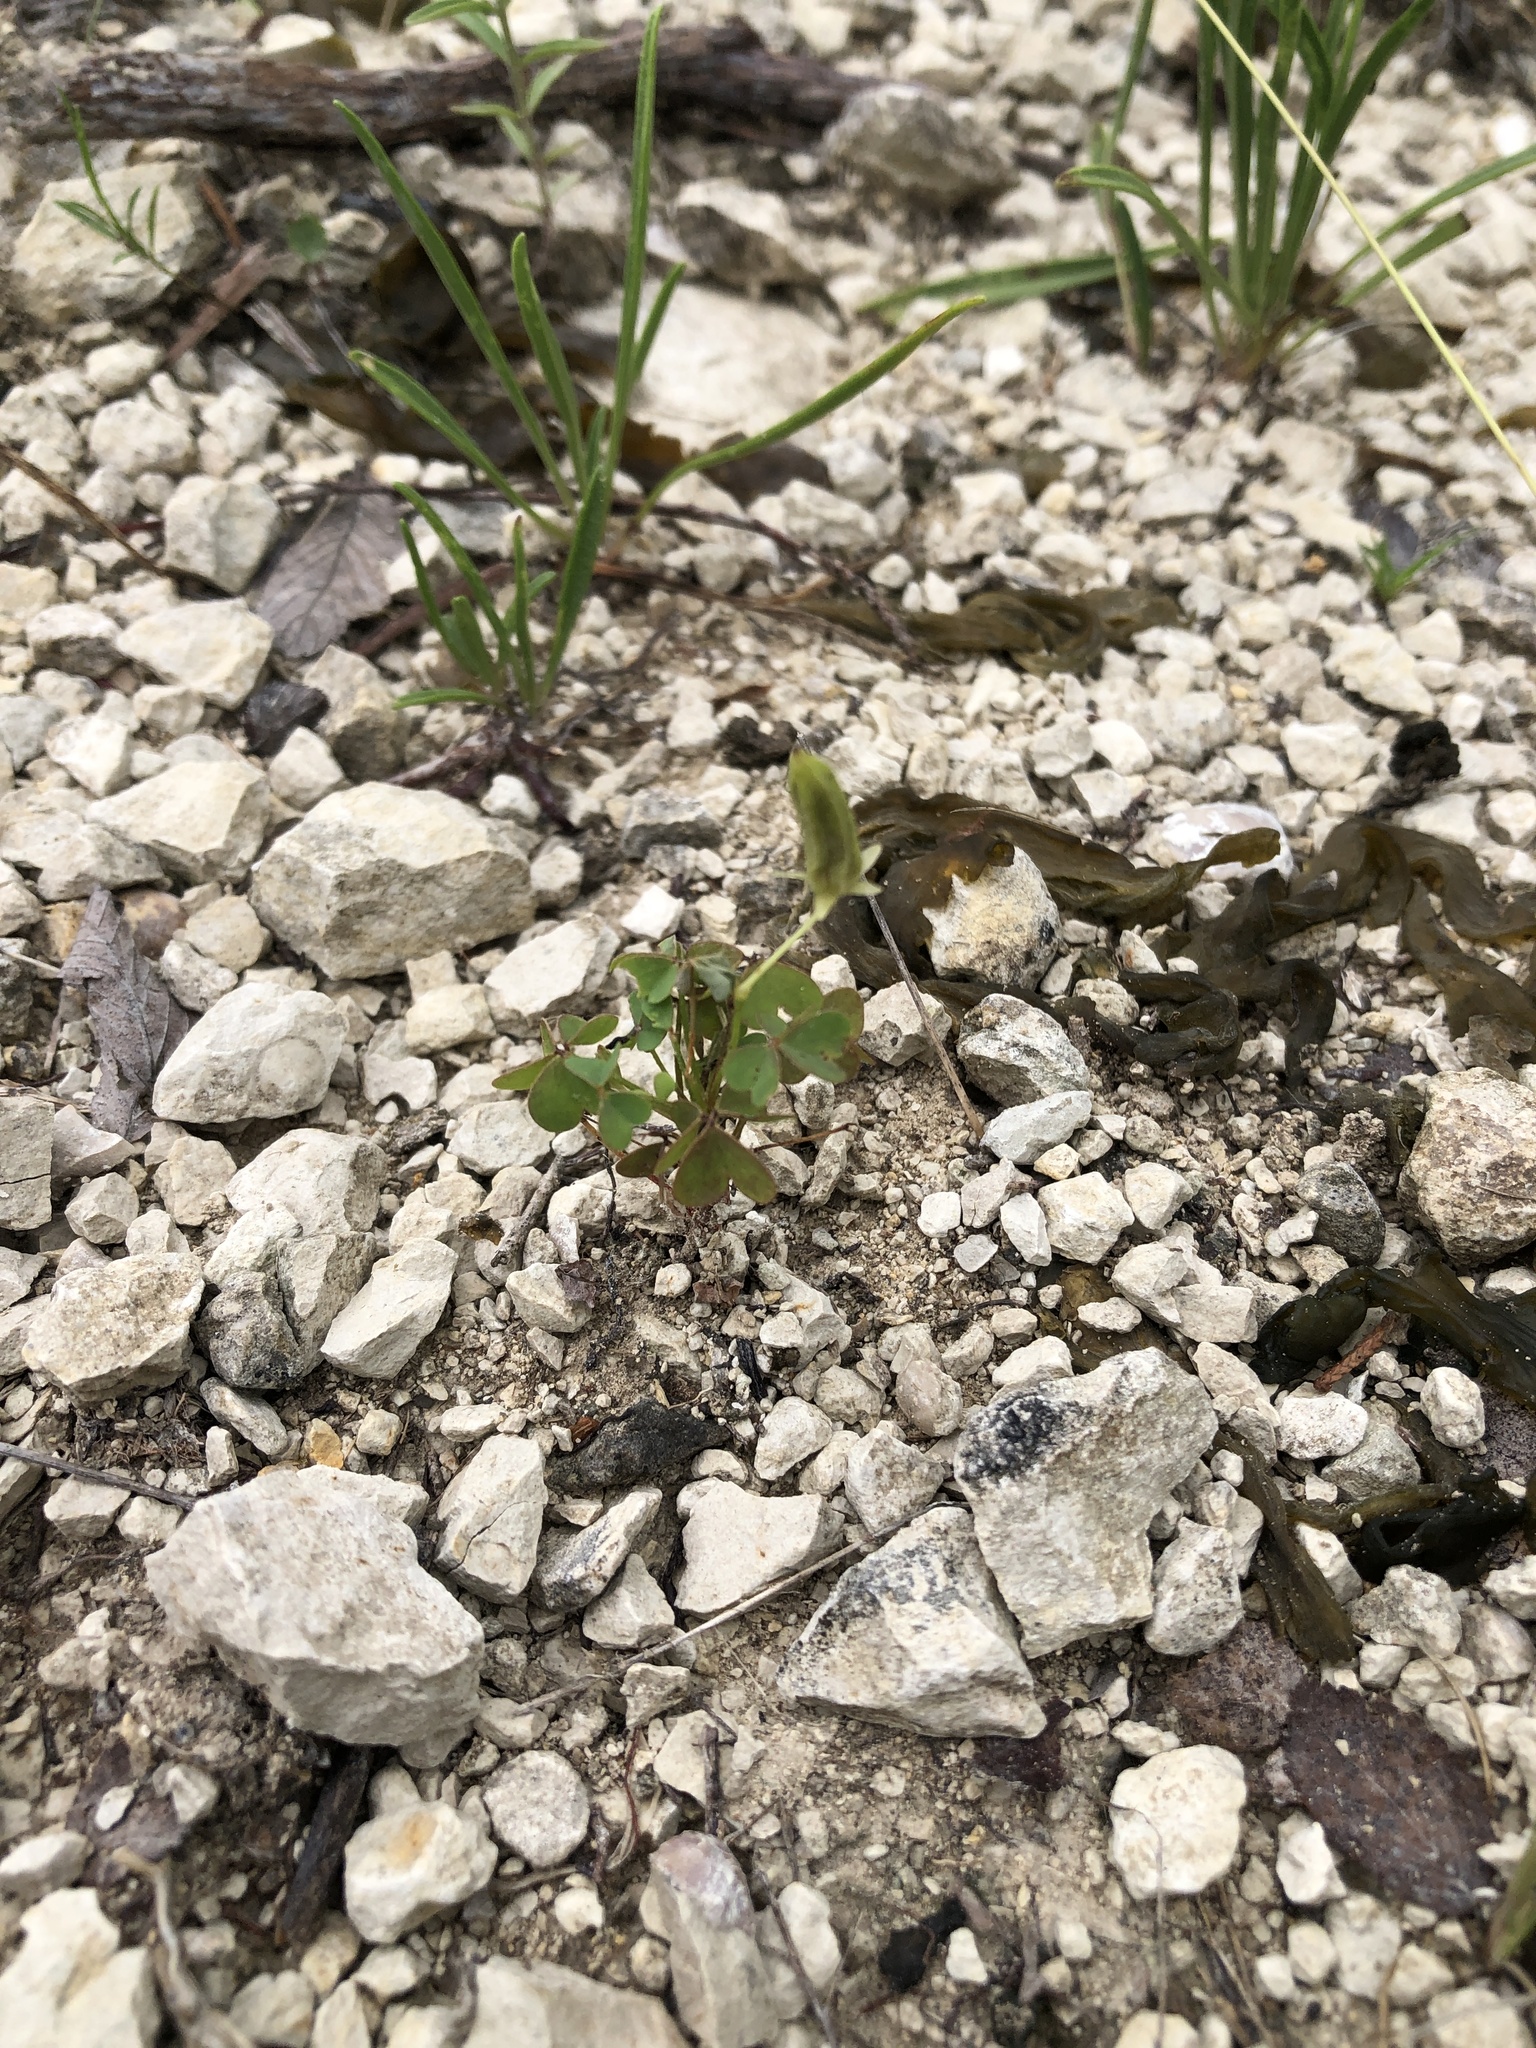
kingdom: Plantae
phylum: Tracheophyta
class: Magnoliopsida
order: Oxalidales
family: Oxalidaceae
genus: Oxalis
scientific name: Oxalis dillenii
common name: Sussex yellow-sorrel
